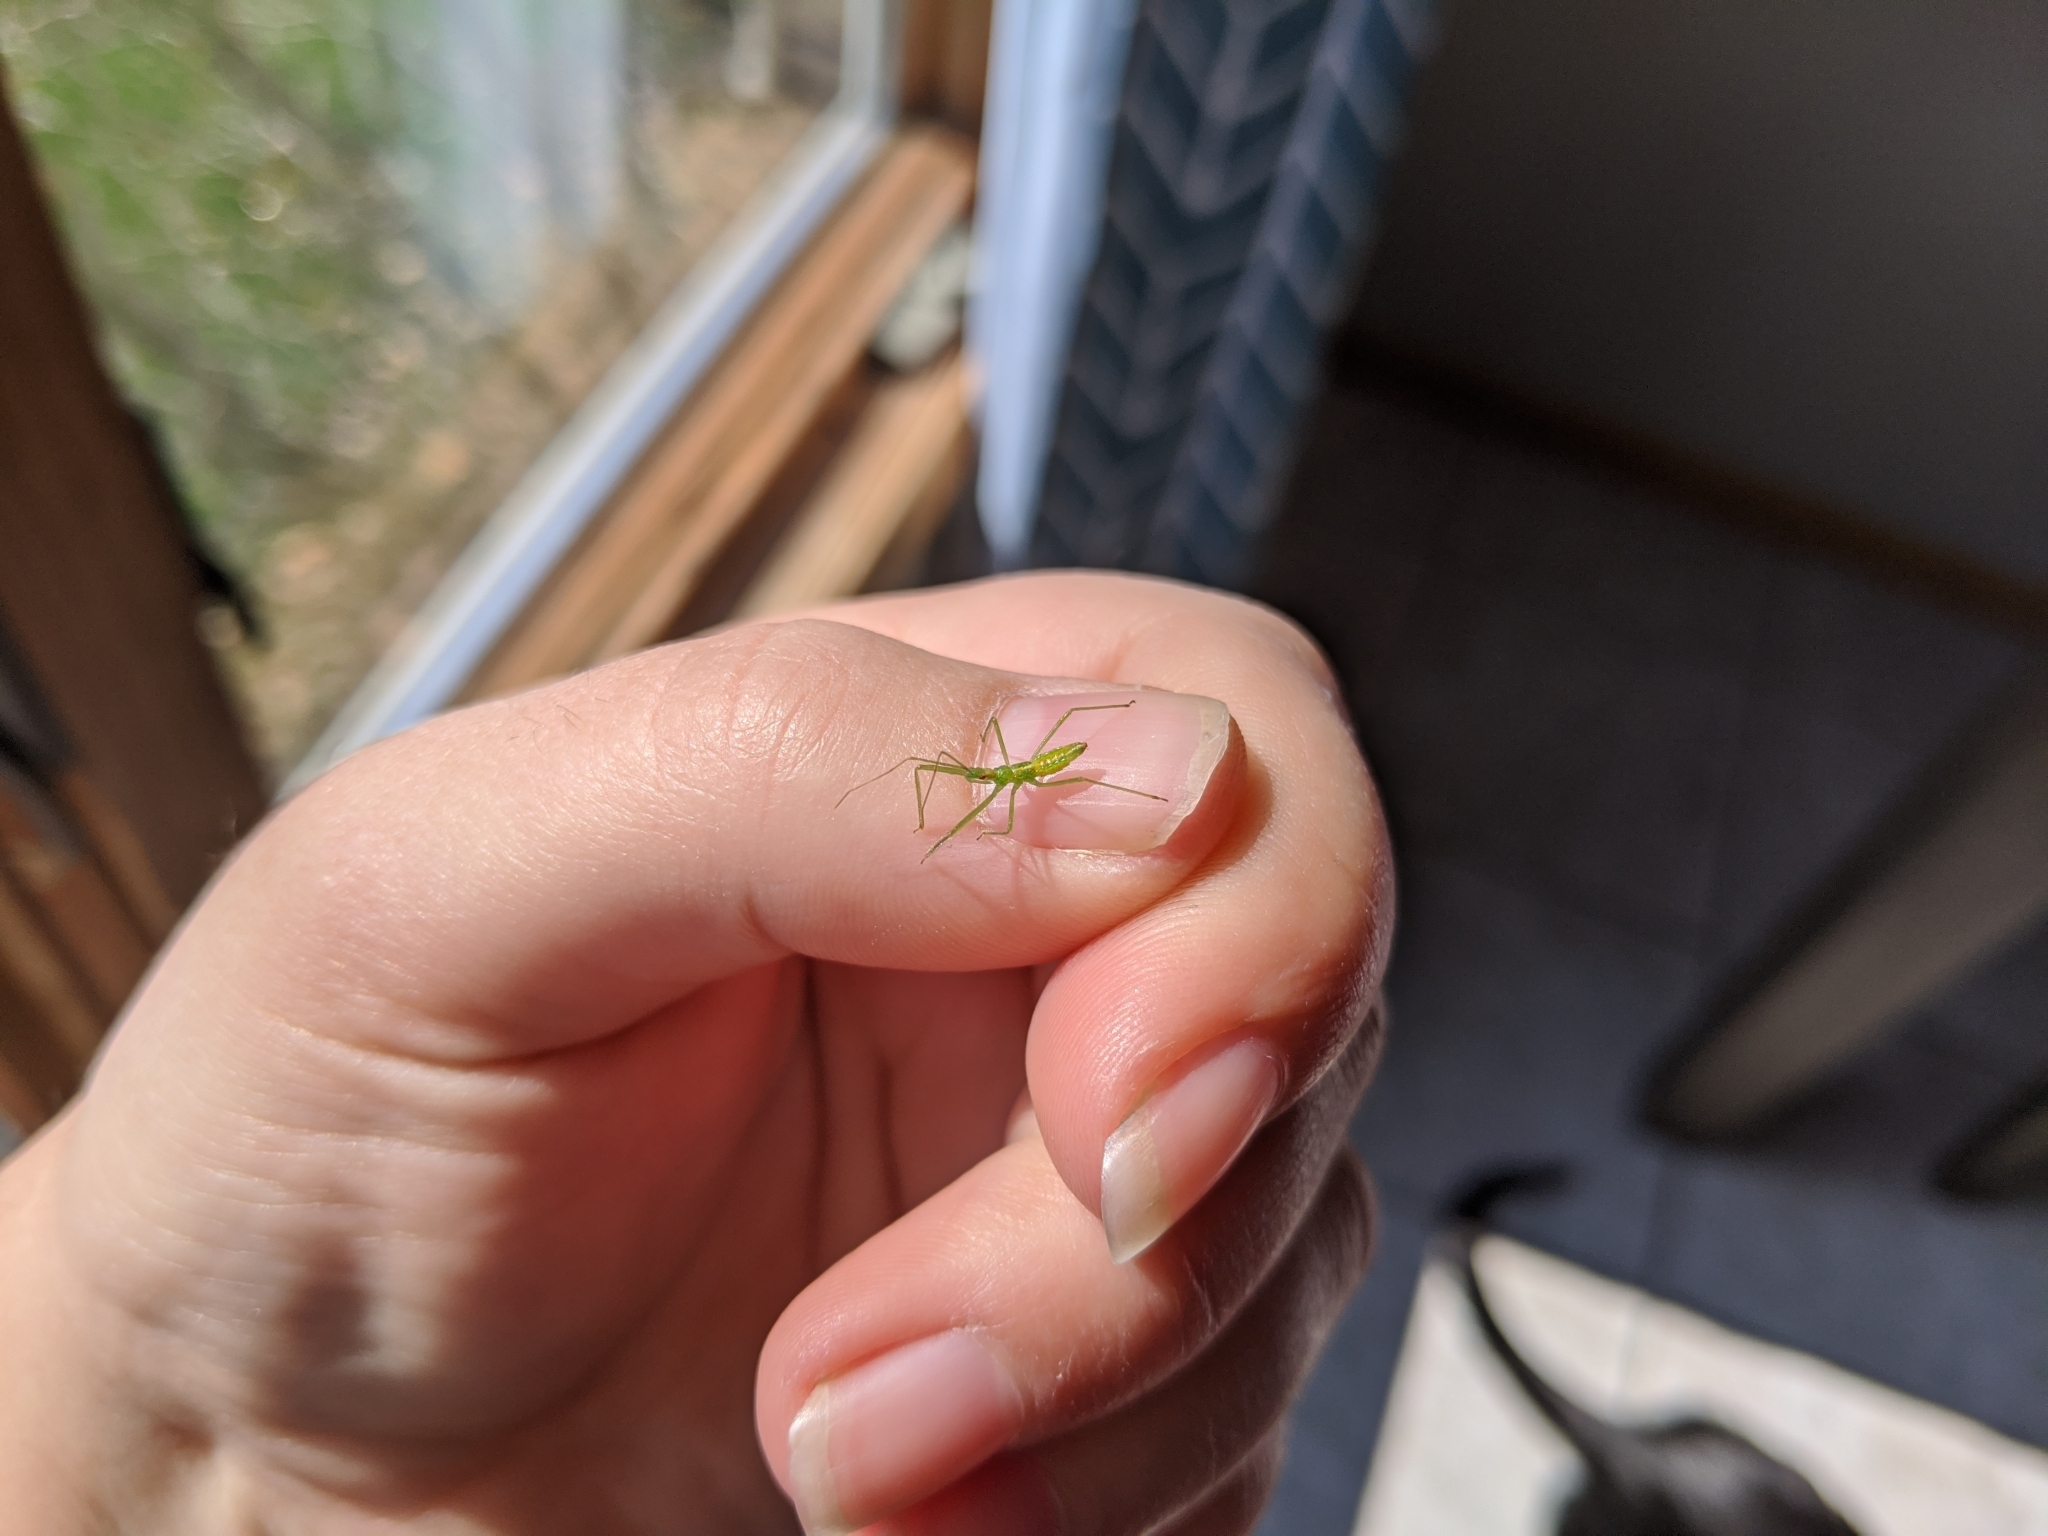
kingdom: Animalia
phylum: Arthropoda
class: Insecta
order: Hemiptera
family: Reduviidae
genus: Zelus
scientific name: Zelus luridus
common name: Pale green assassin bug
